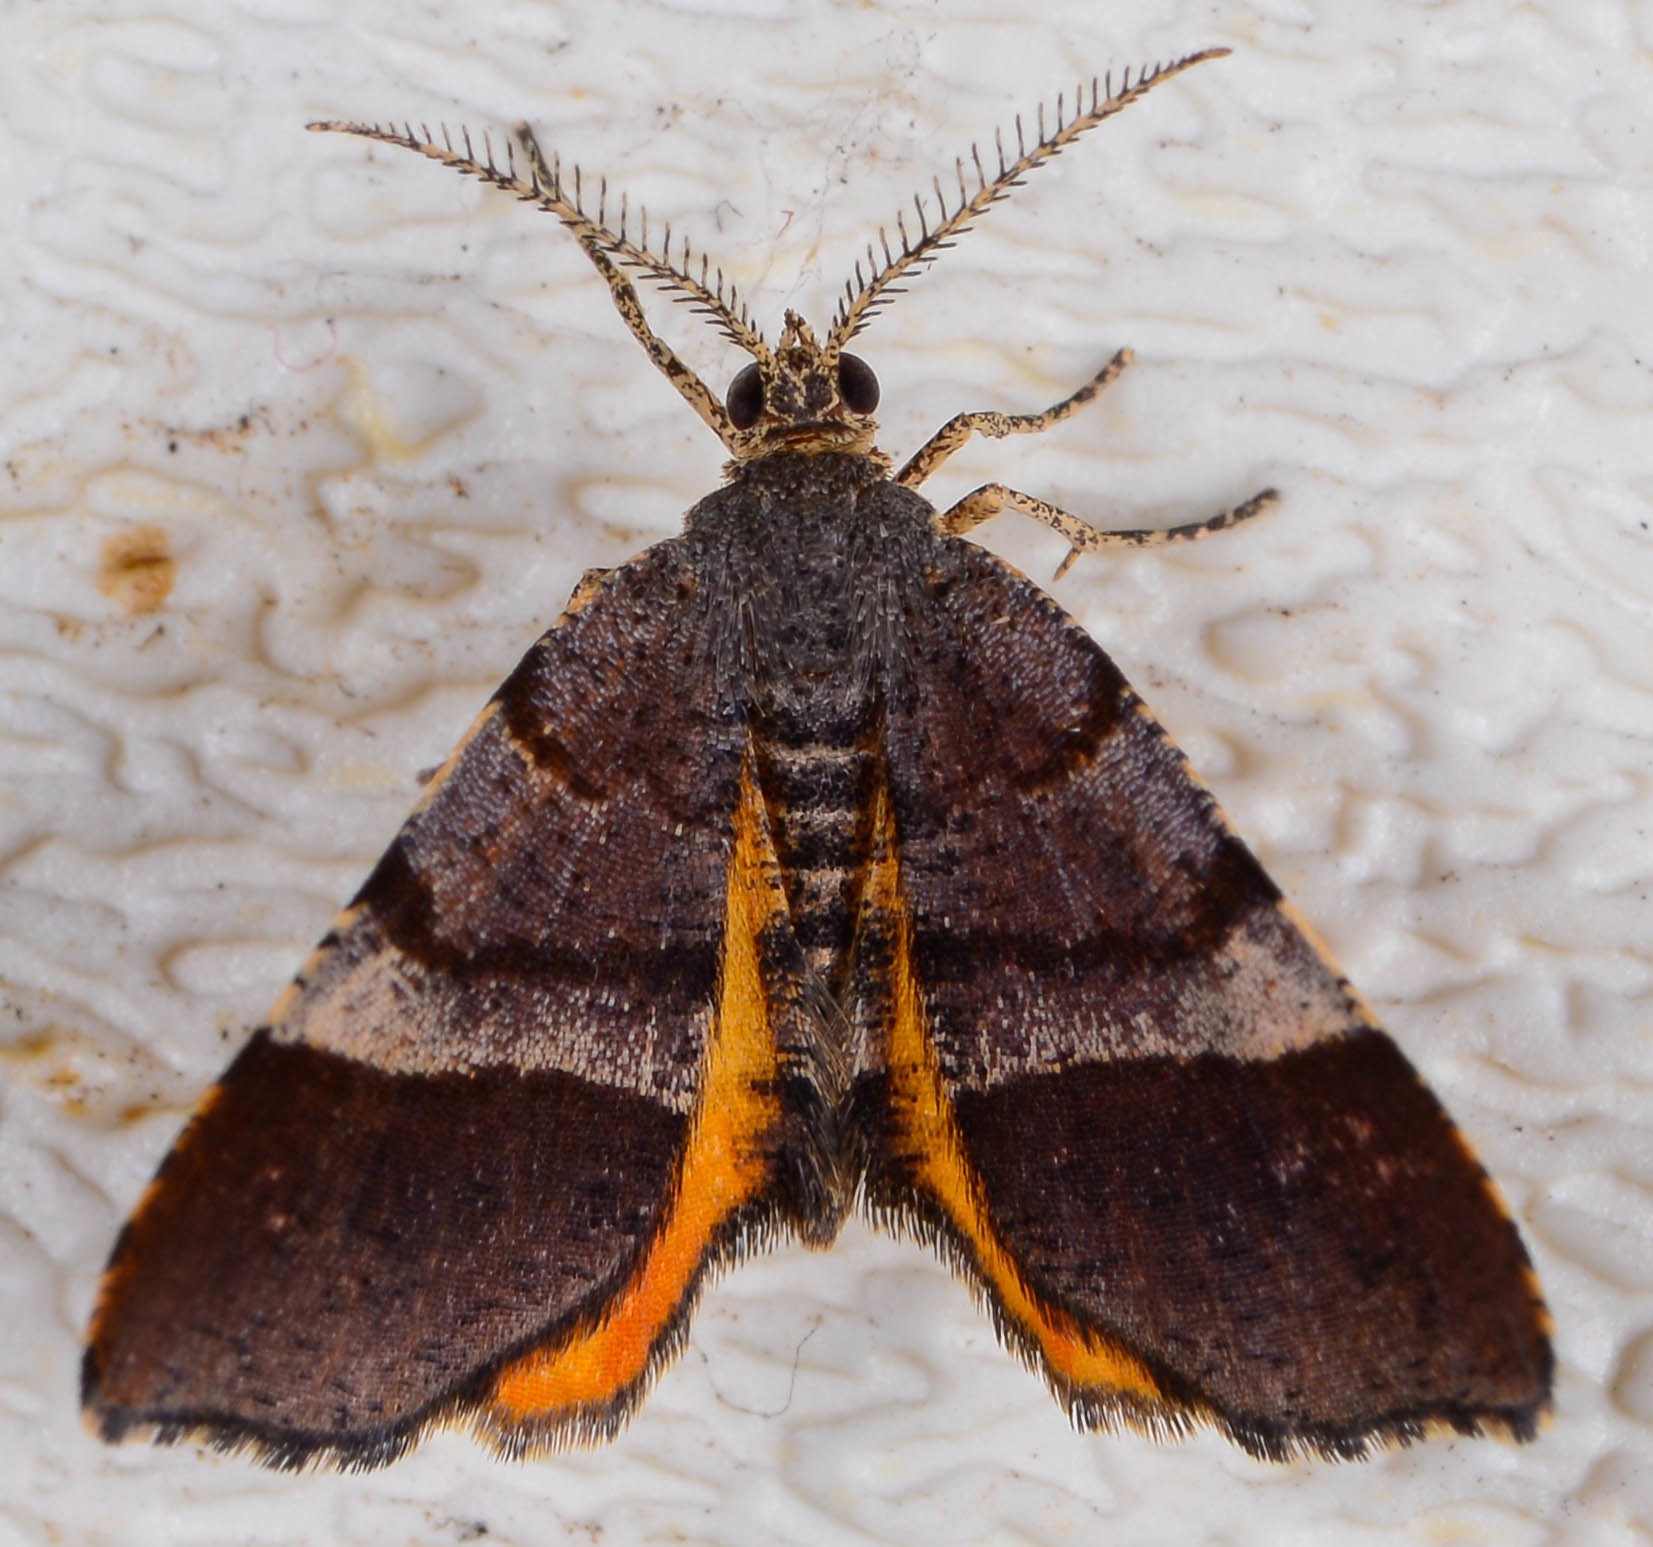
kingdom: Animalia
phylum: Arthropoda
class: Insecta
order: Lepidoptera
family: Geometridae
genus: Mellilla
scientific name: Mellilla xanthometata
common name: Orange wing moth
